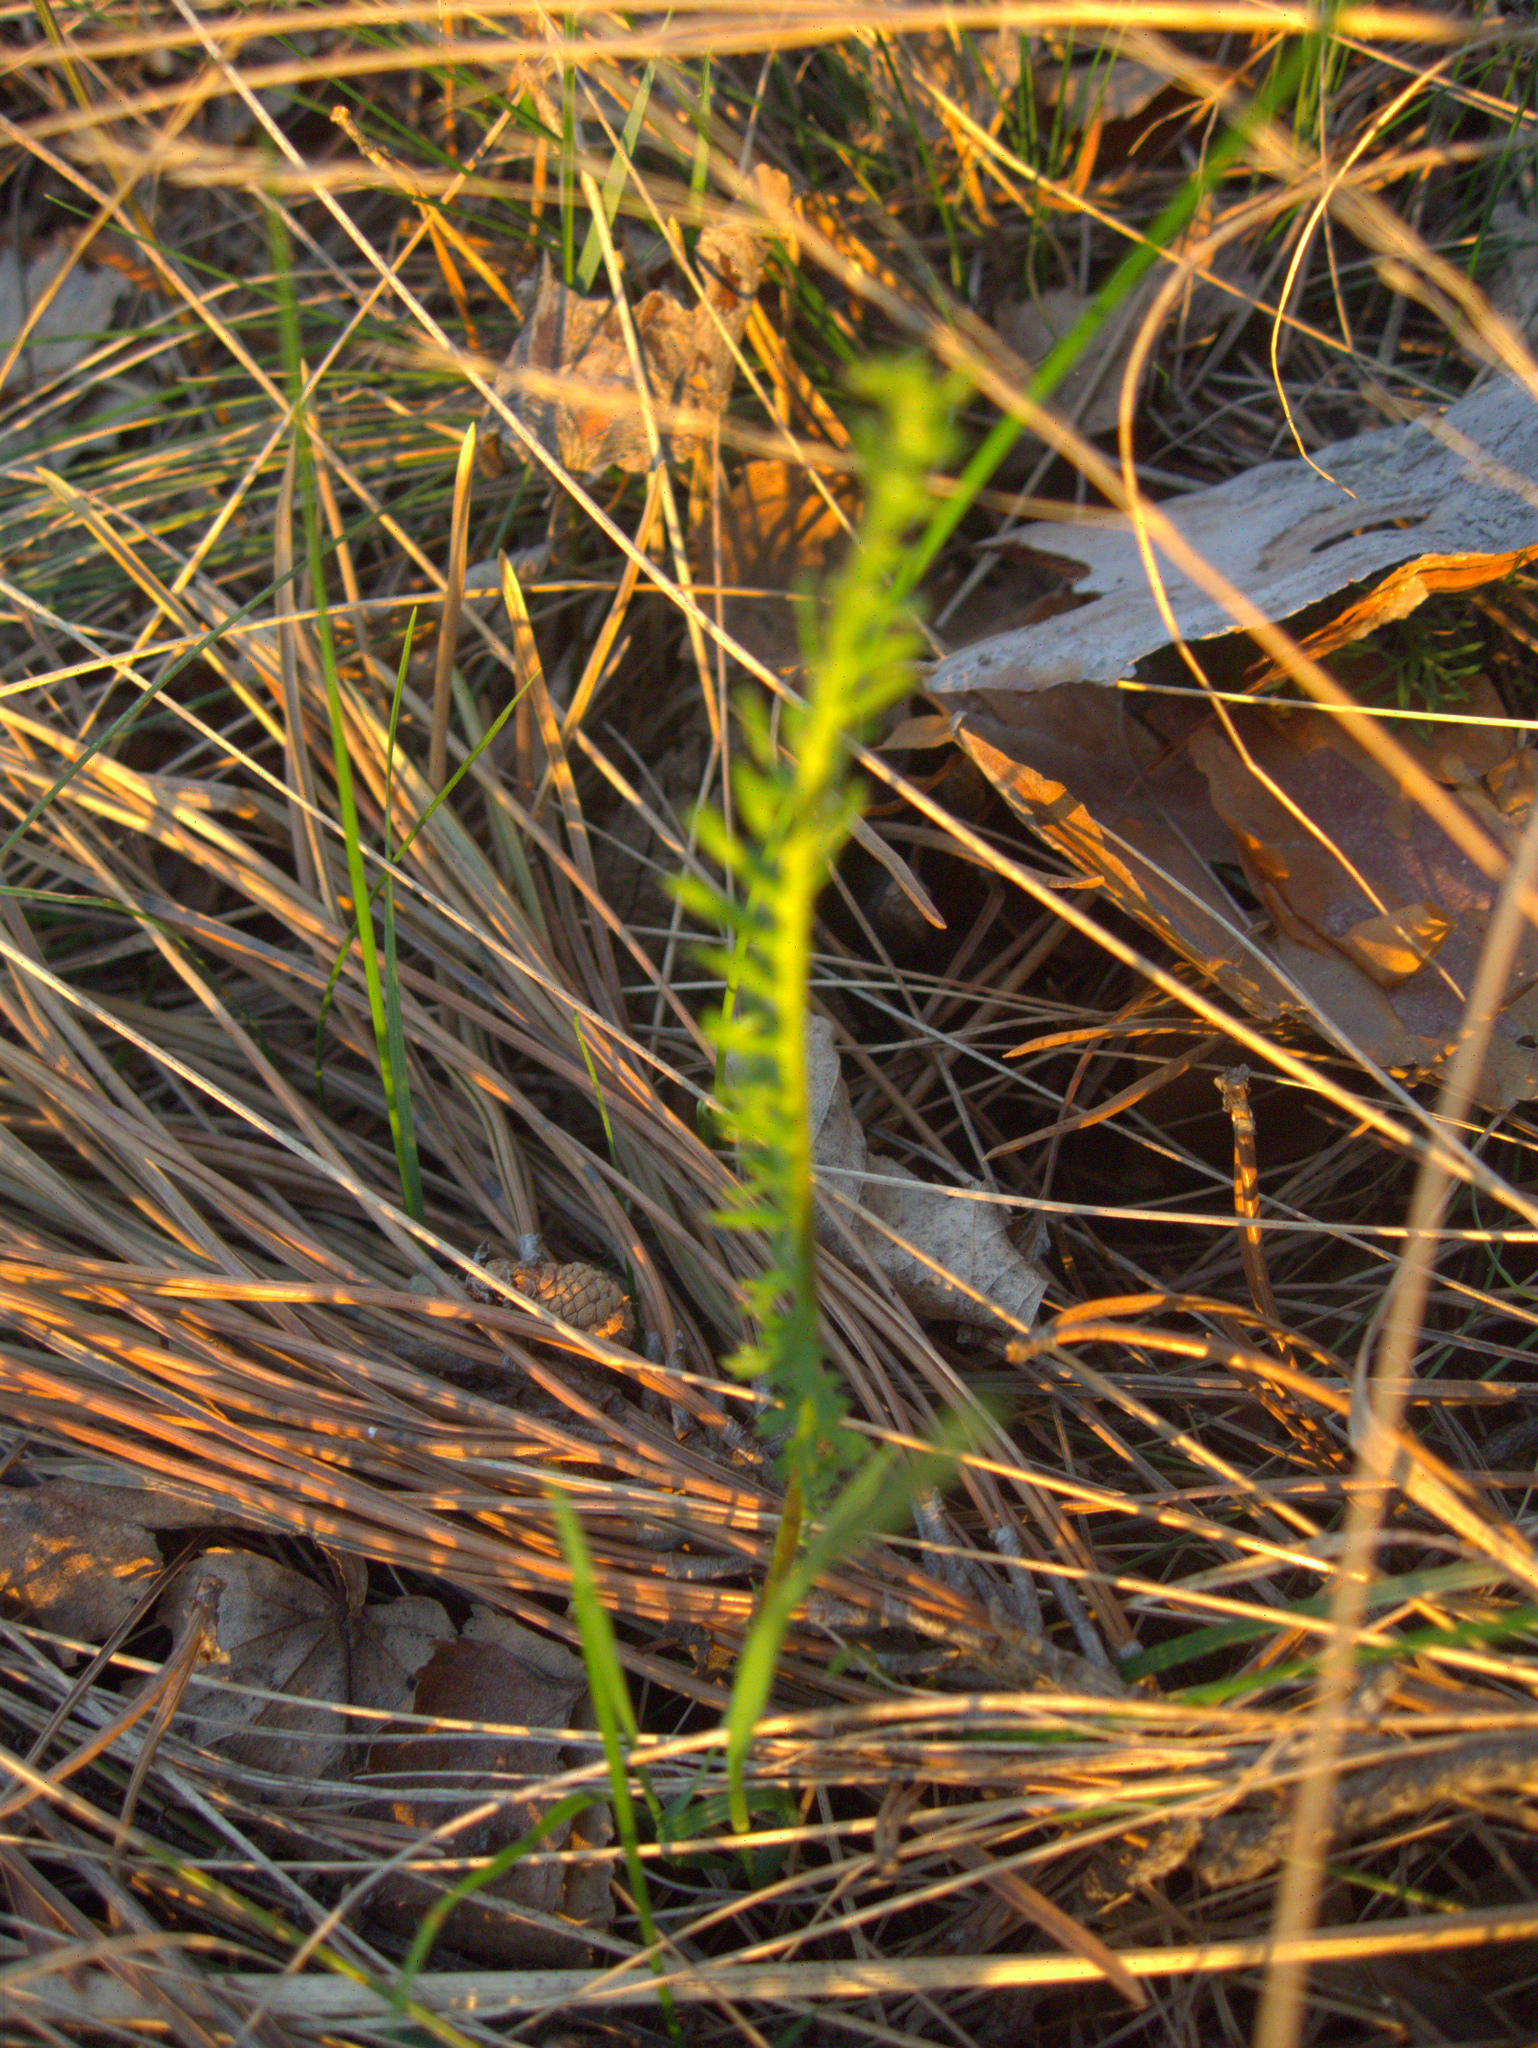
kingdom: Plantae
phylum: Tracheophyta
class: Magnoliopsida
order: Asterales
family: Asteraceae
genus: Achillea
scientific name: Achillea millefolium
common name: Yarrow
